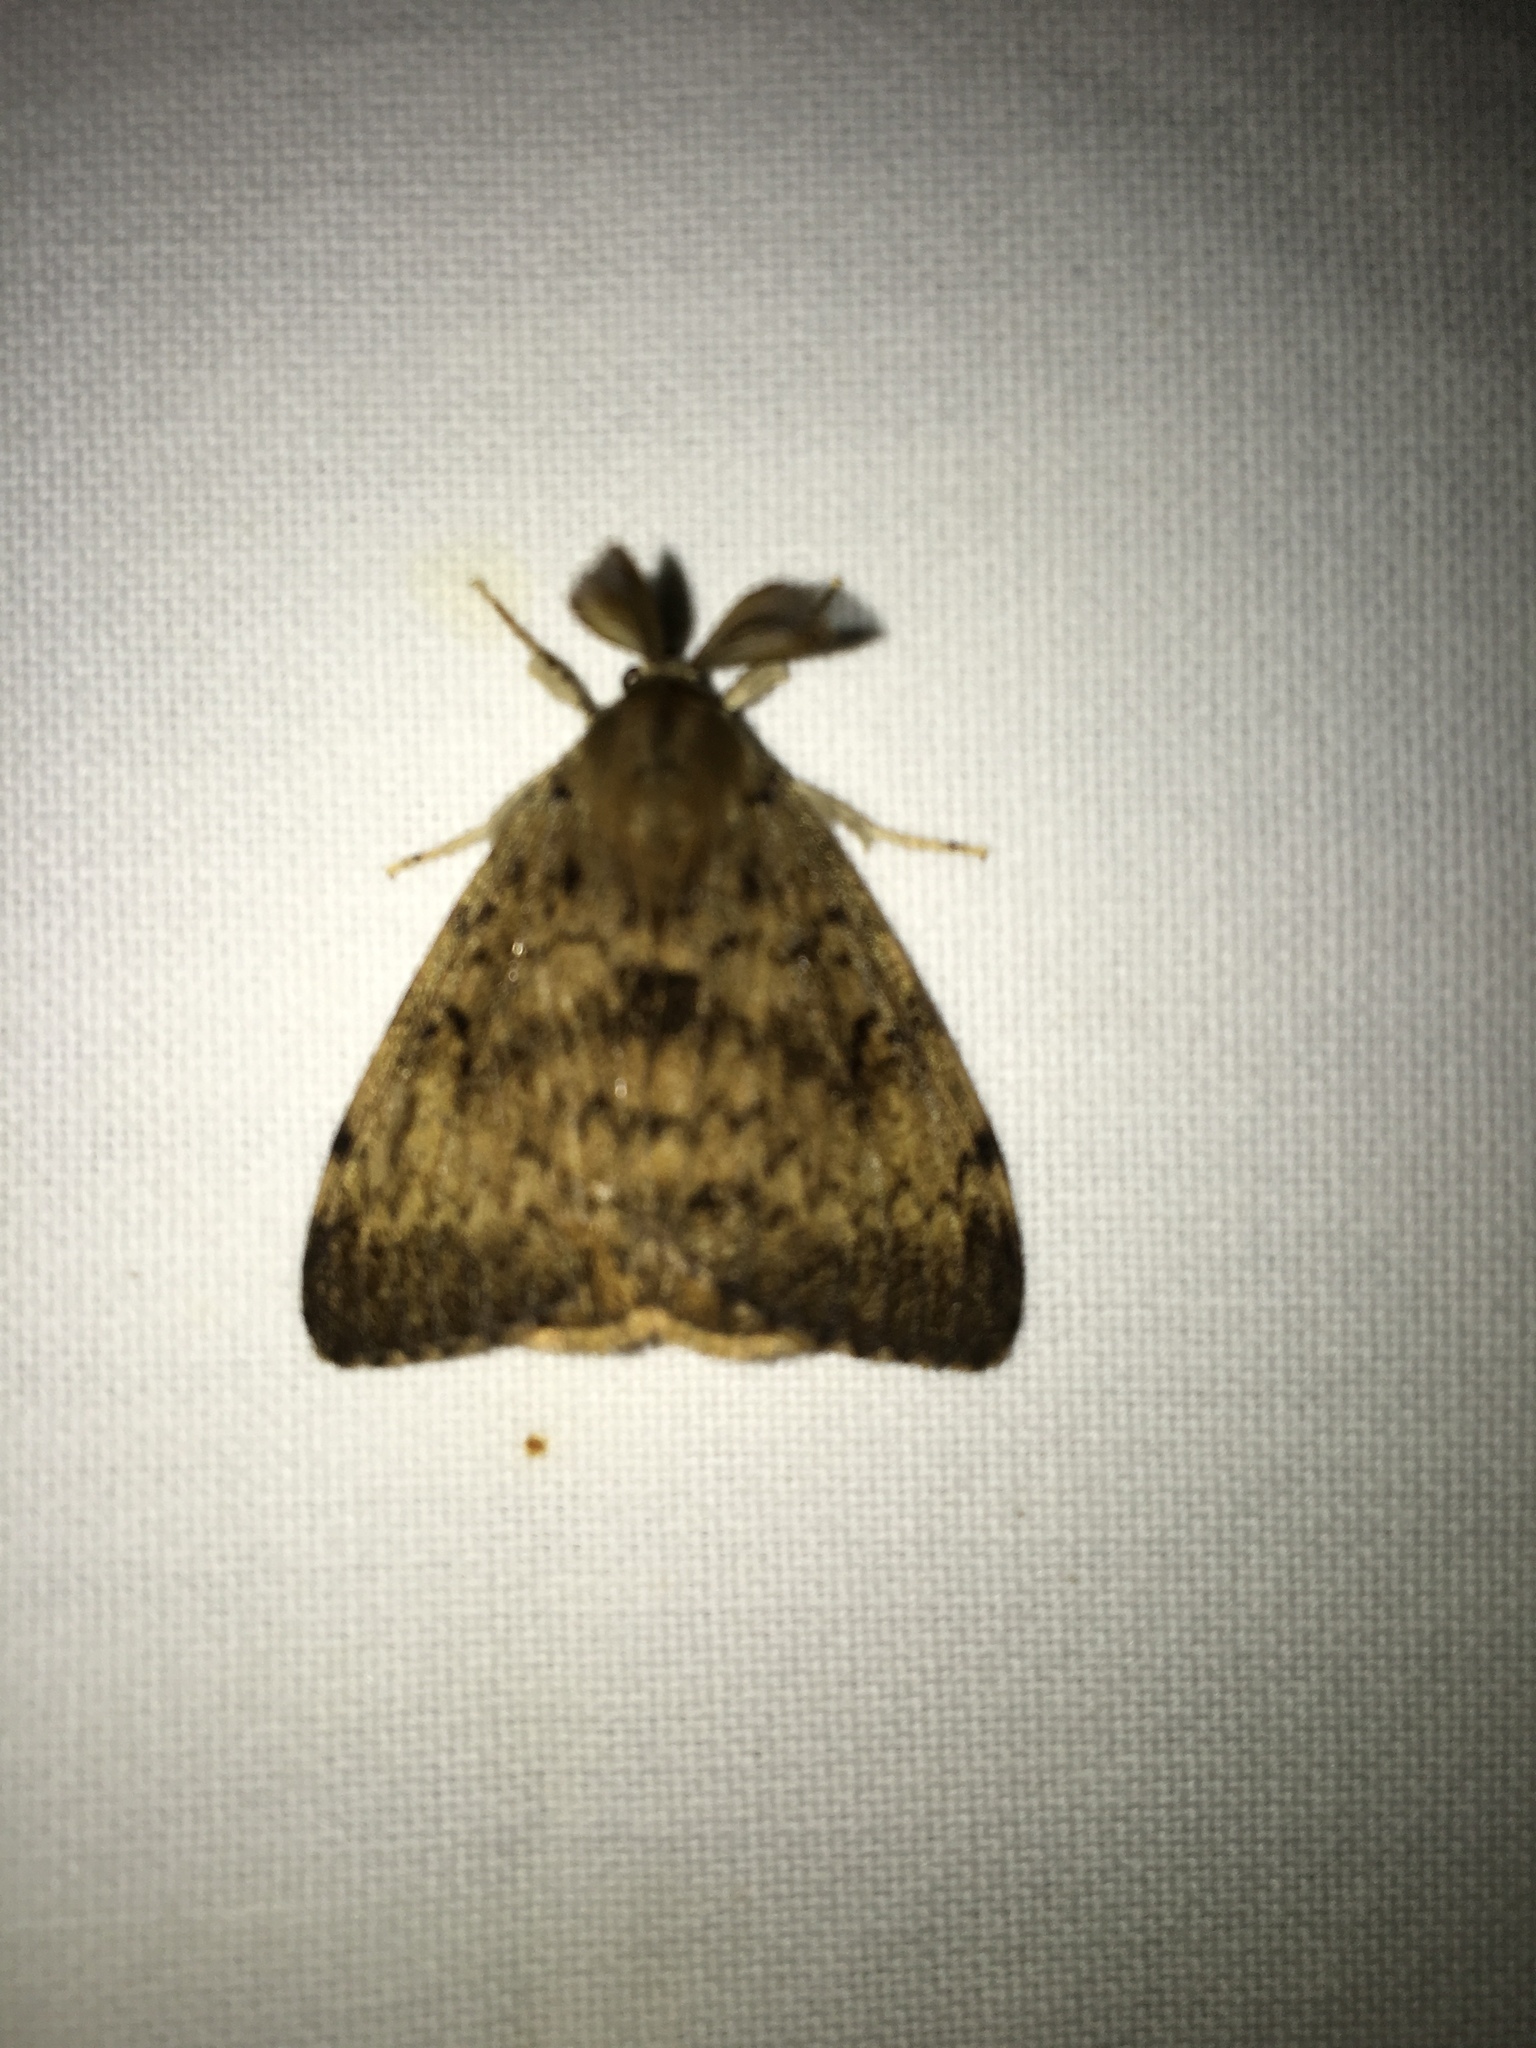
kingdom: Animalia
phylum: Arthropoda
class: Insecta
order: Lepidoptera
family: Erebidae
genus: Lymantria
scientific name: Lymantria dispar
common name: Gypsy moth
